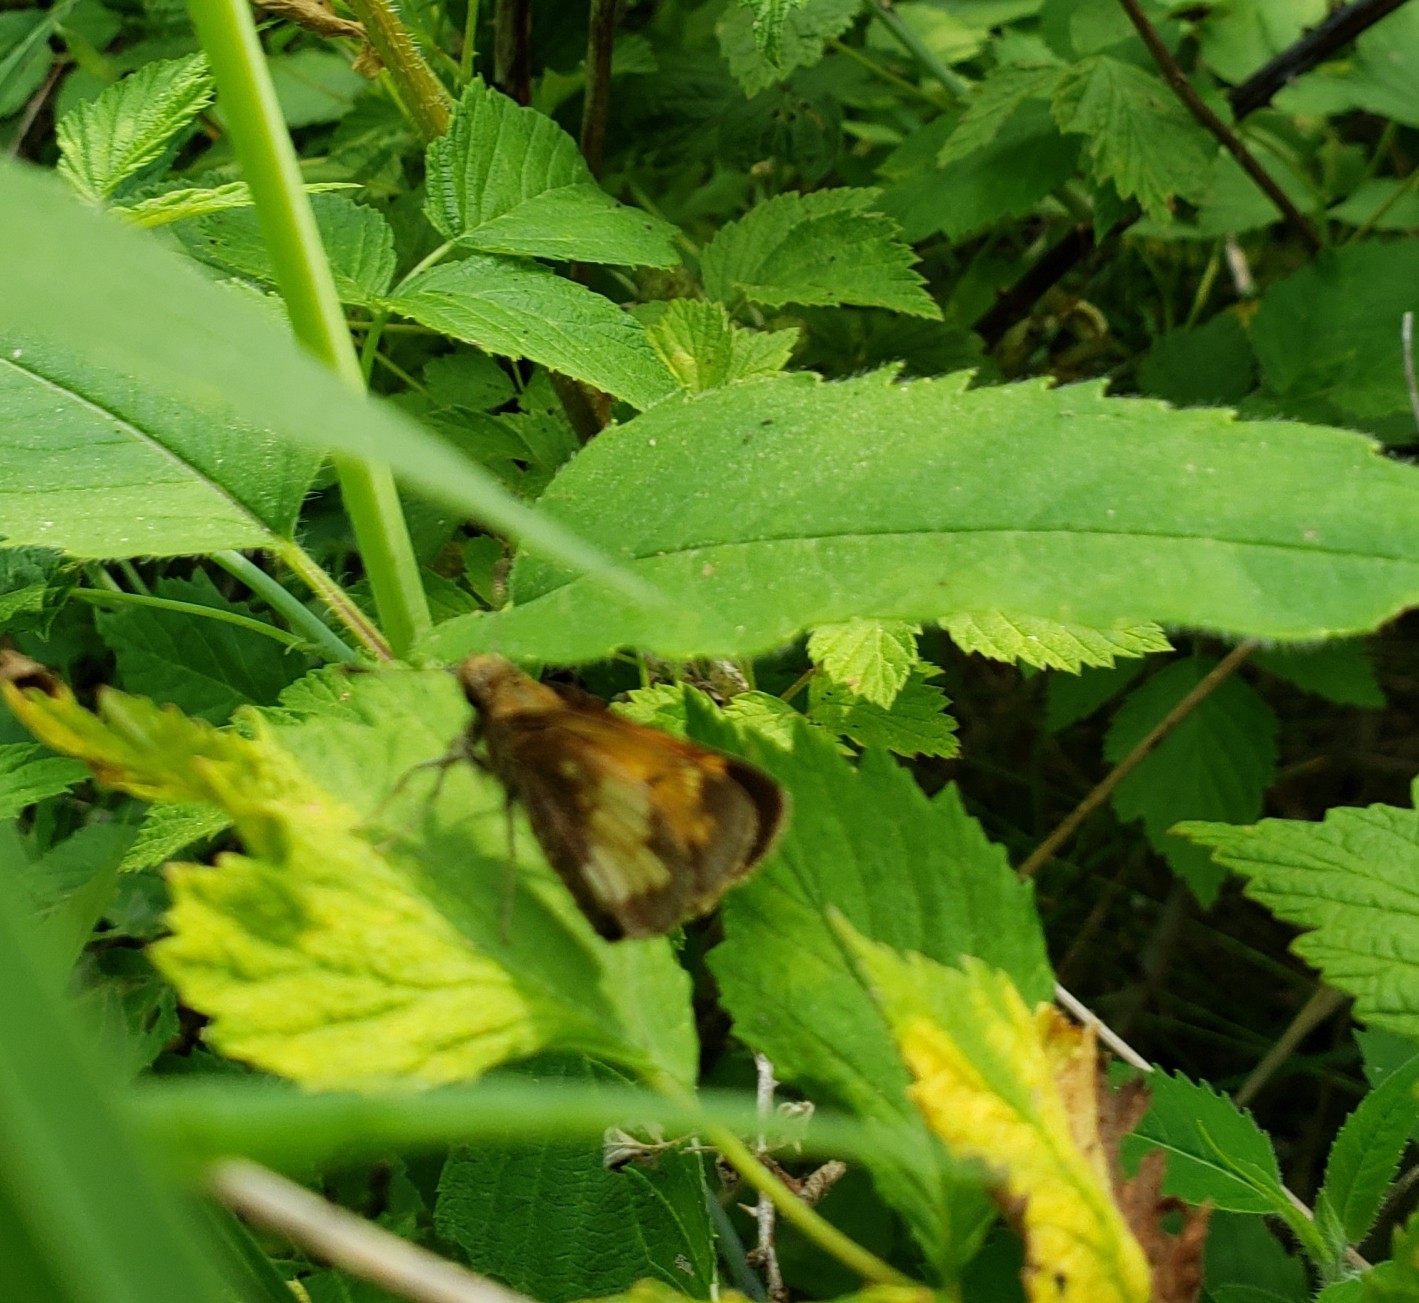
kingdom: Animalia
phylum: Arthropoda
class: Insecta
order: Lepidoptera
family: Hesperiidae
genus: Lon
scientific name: Lon hobomok
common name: Hobomok skipper
